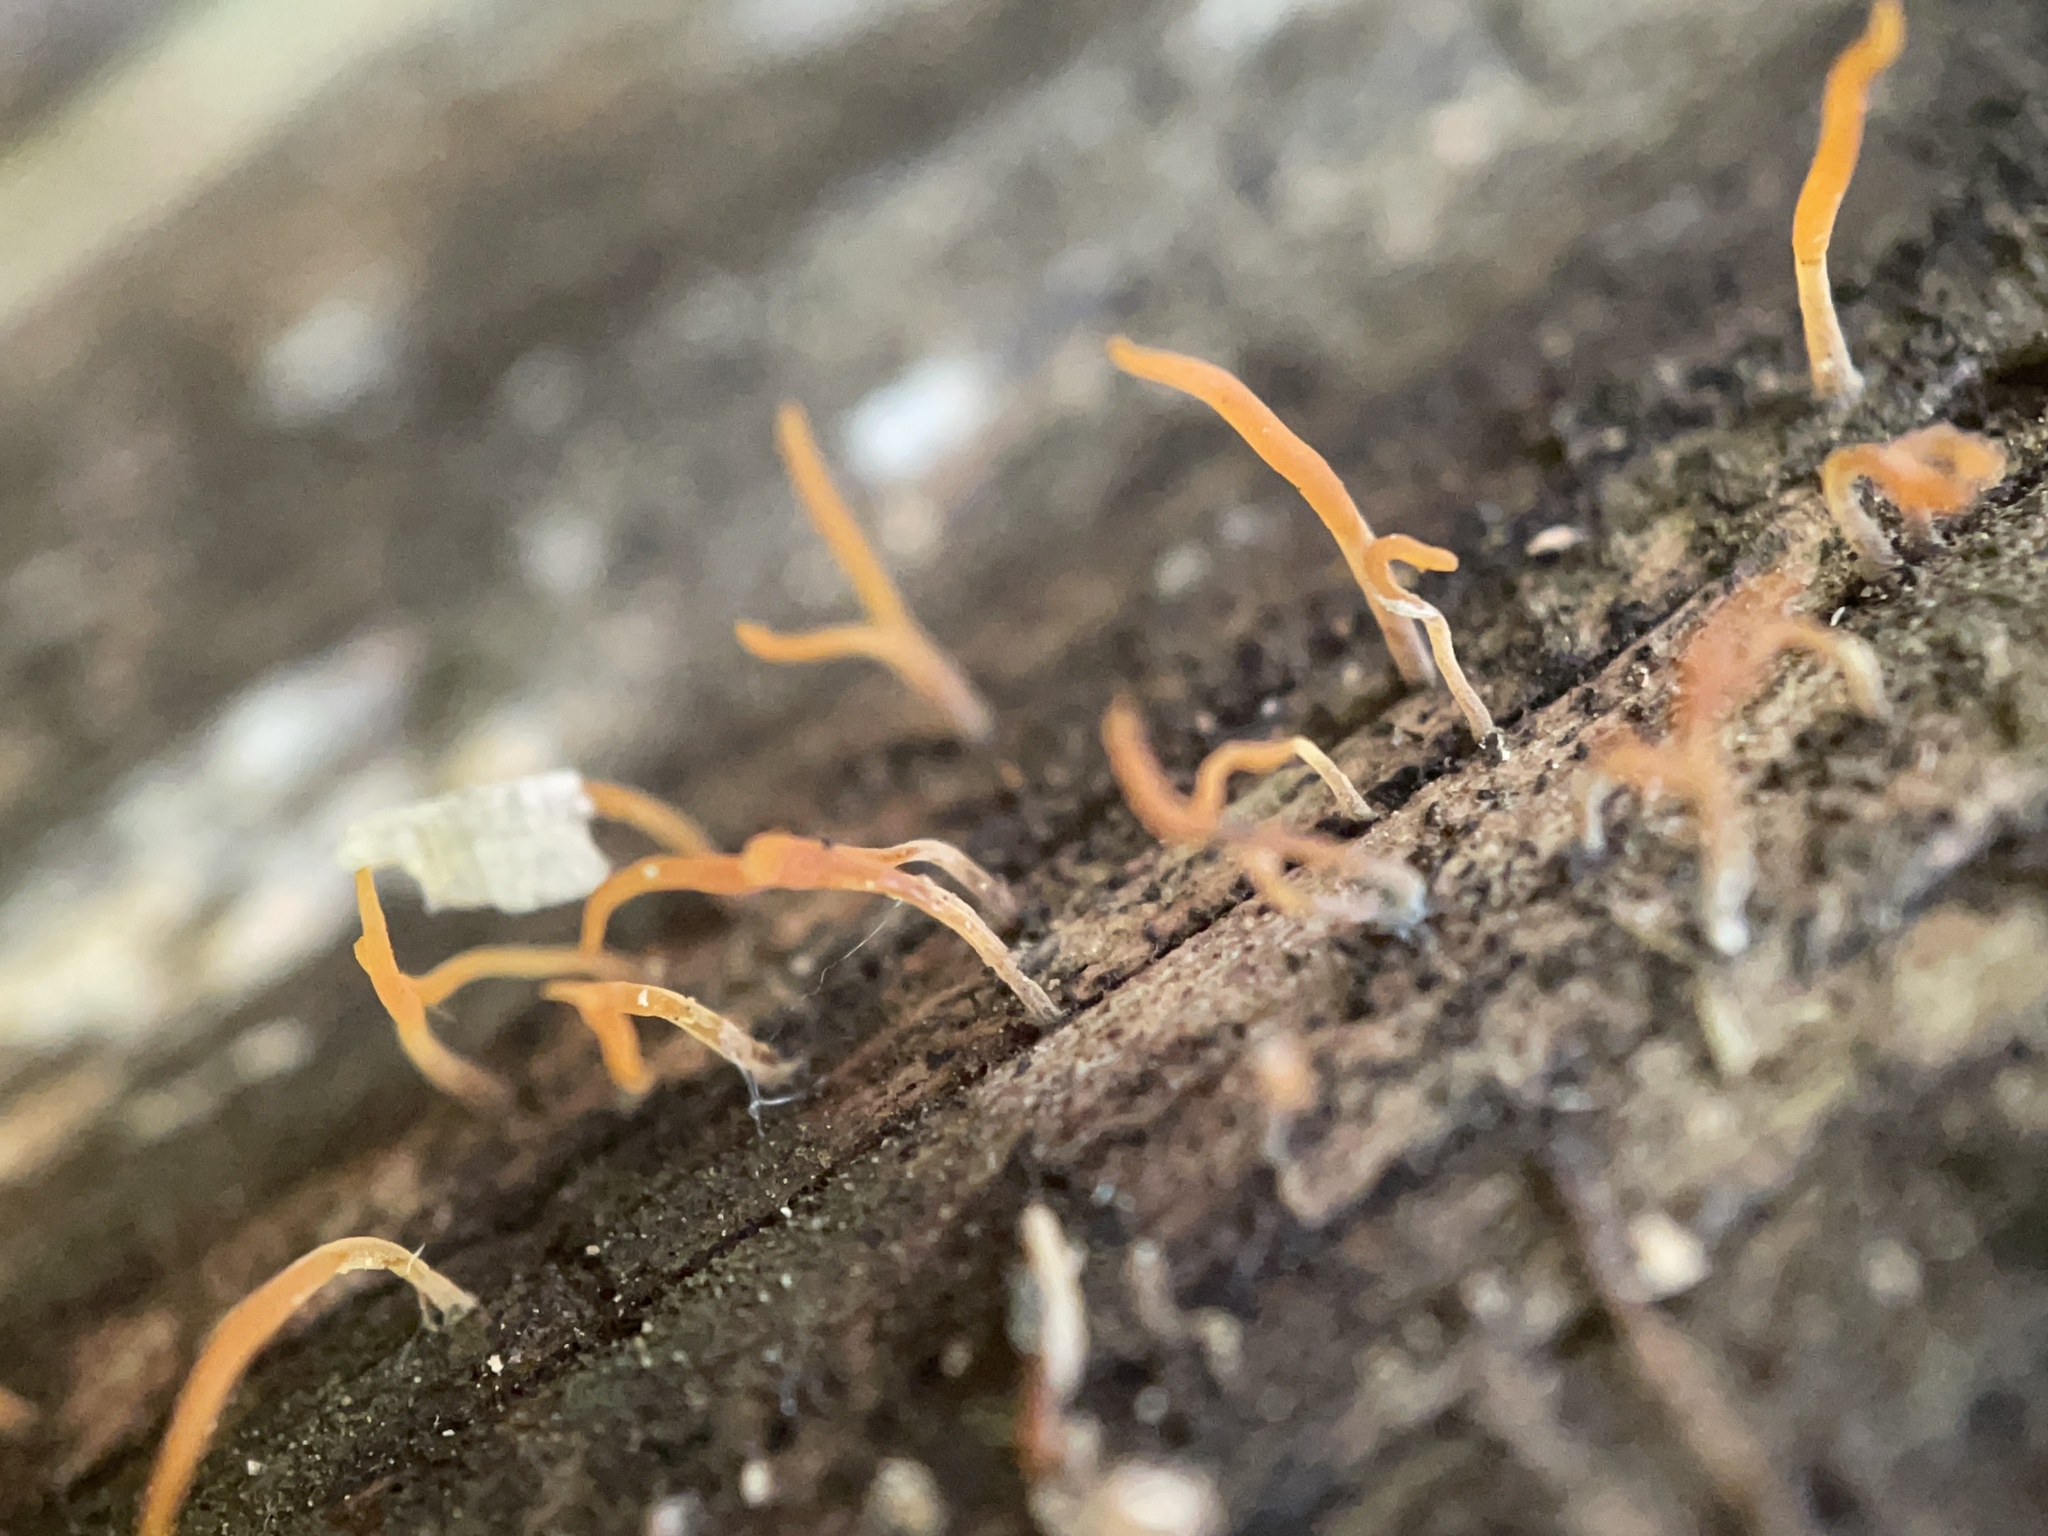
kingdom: Fungi
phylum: Basidiomycota
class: Dacrymycetes
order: Dacrymycetales
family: Dacrymycetaceae
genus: Calocera
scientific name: Calocera cornea
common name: Small stagshorn
